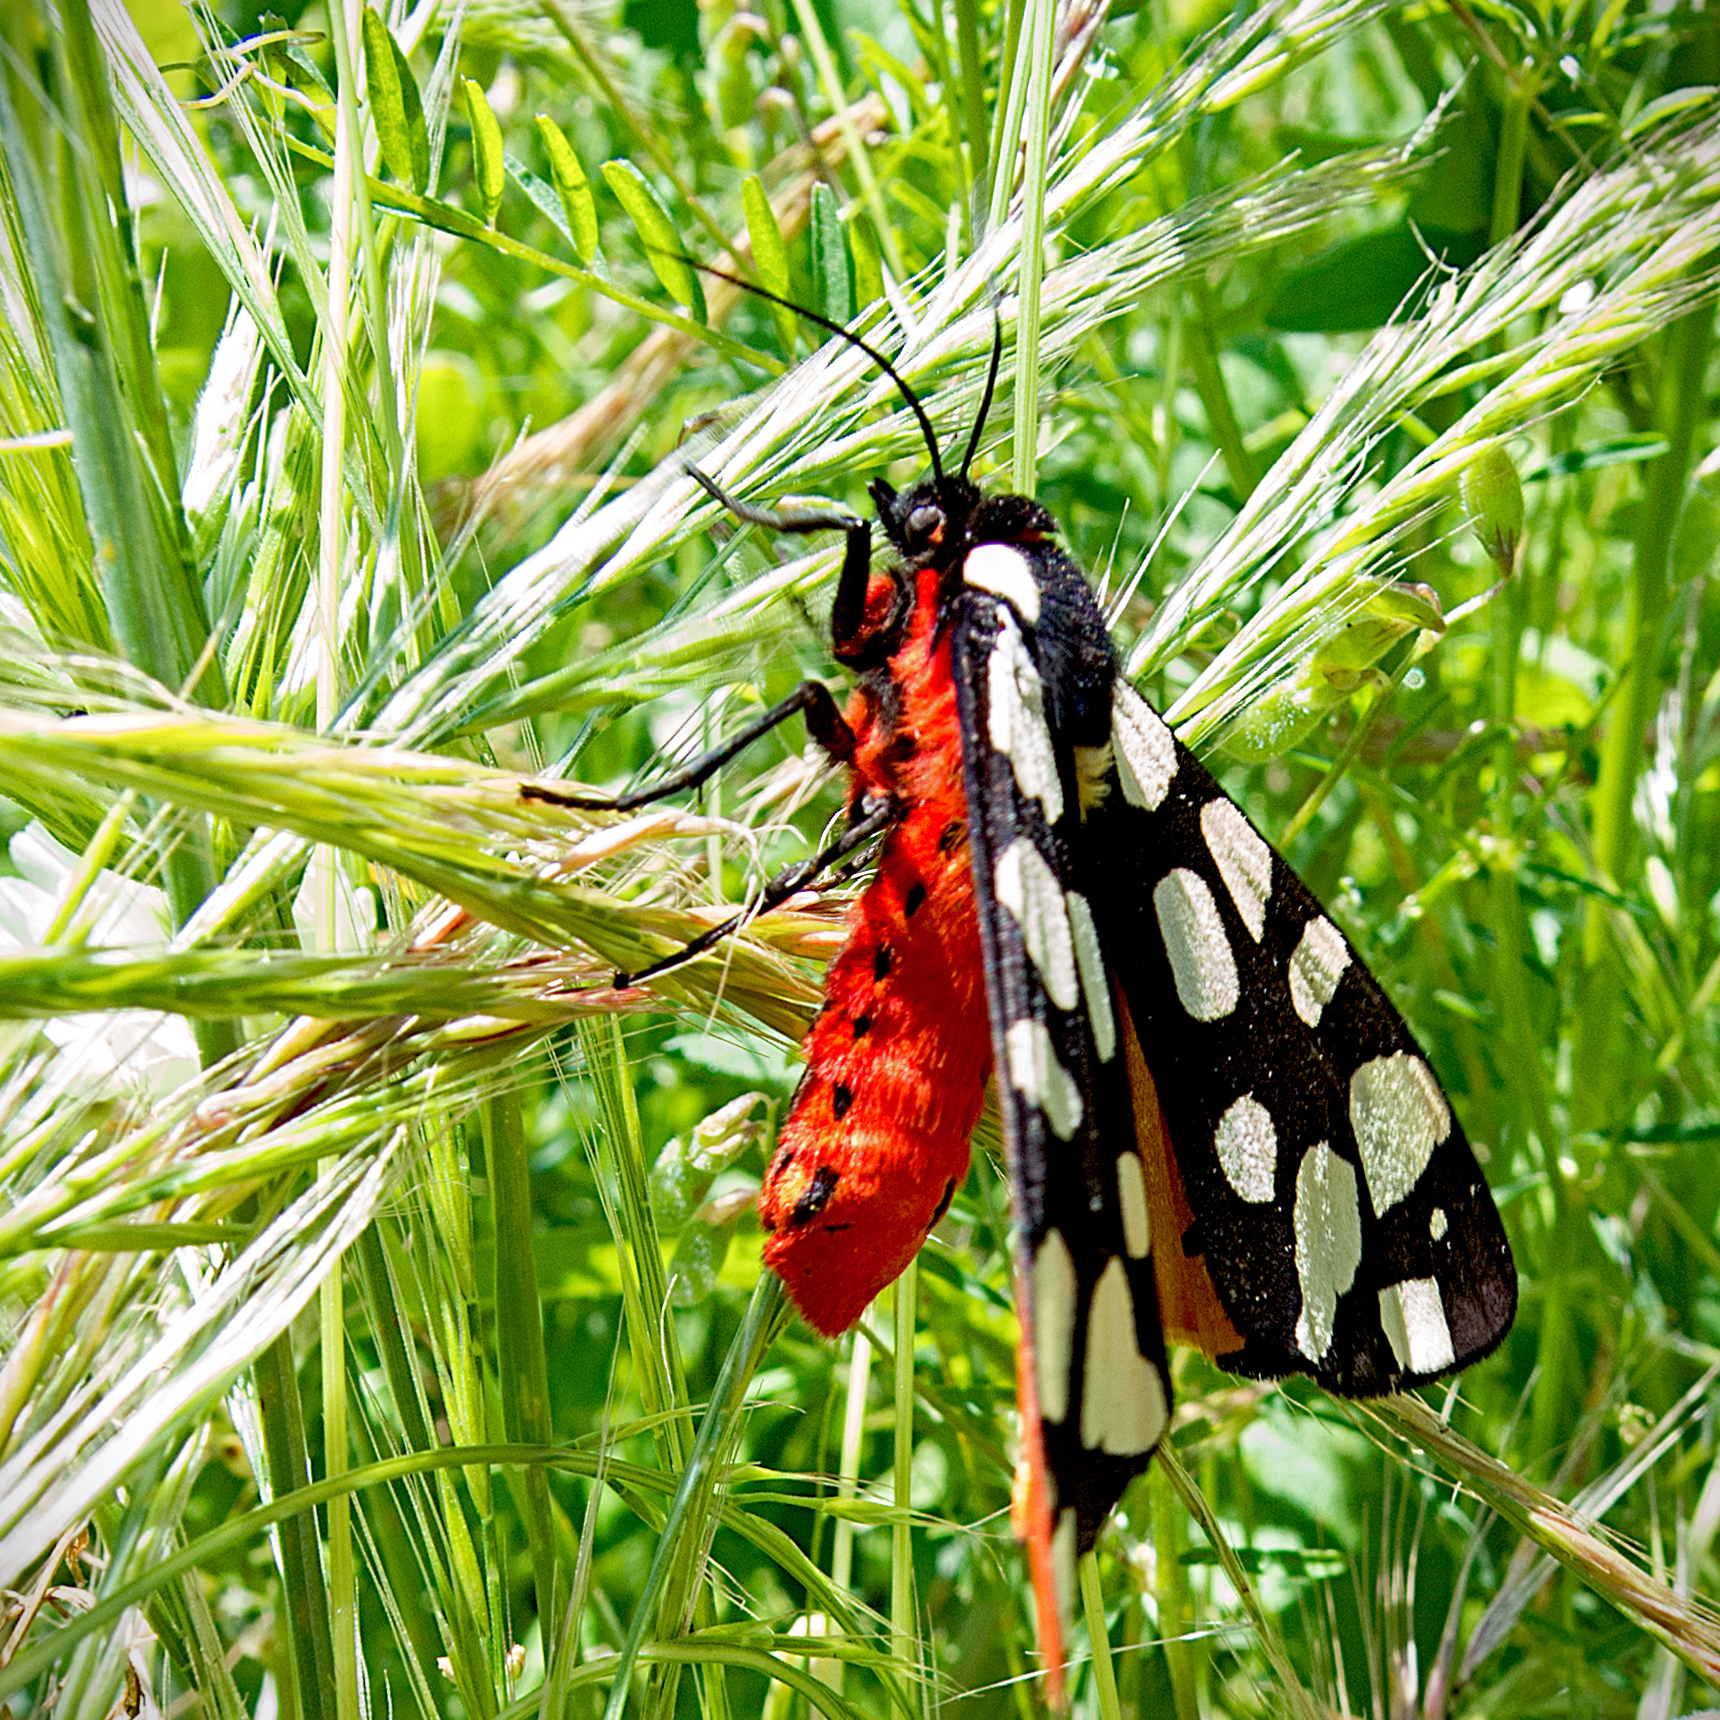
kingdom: Animalia
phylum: Arthropoda
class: Insecta
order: Lepidoptera
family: Erebidae
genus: Epicallia
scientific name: Epicallia villica
